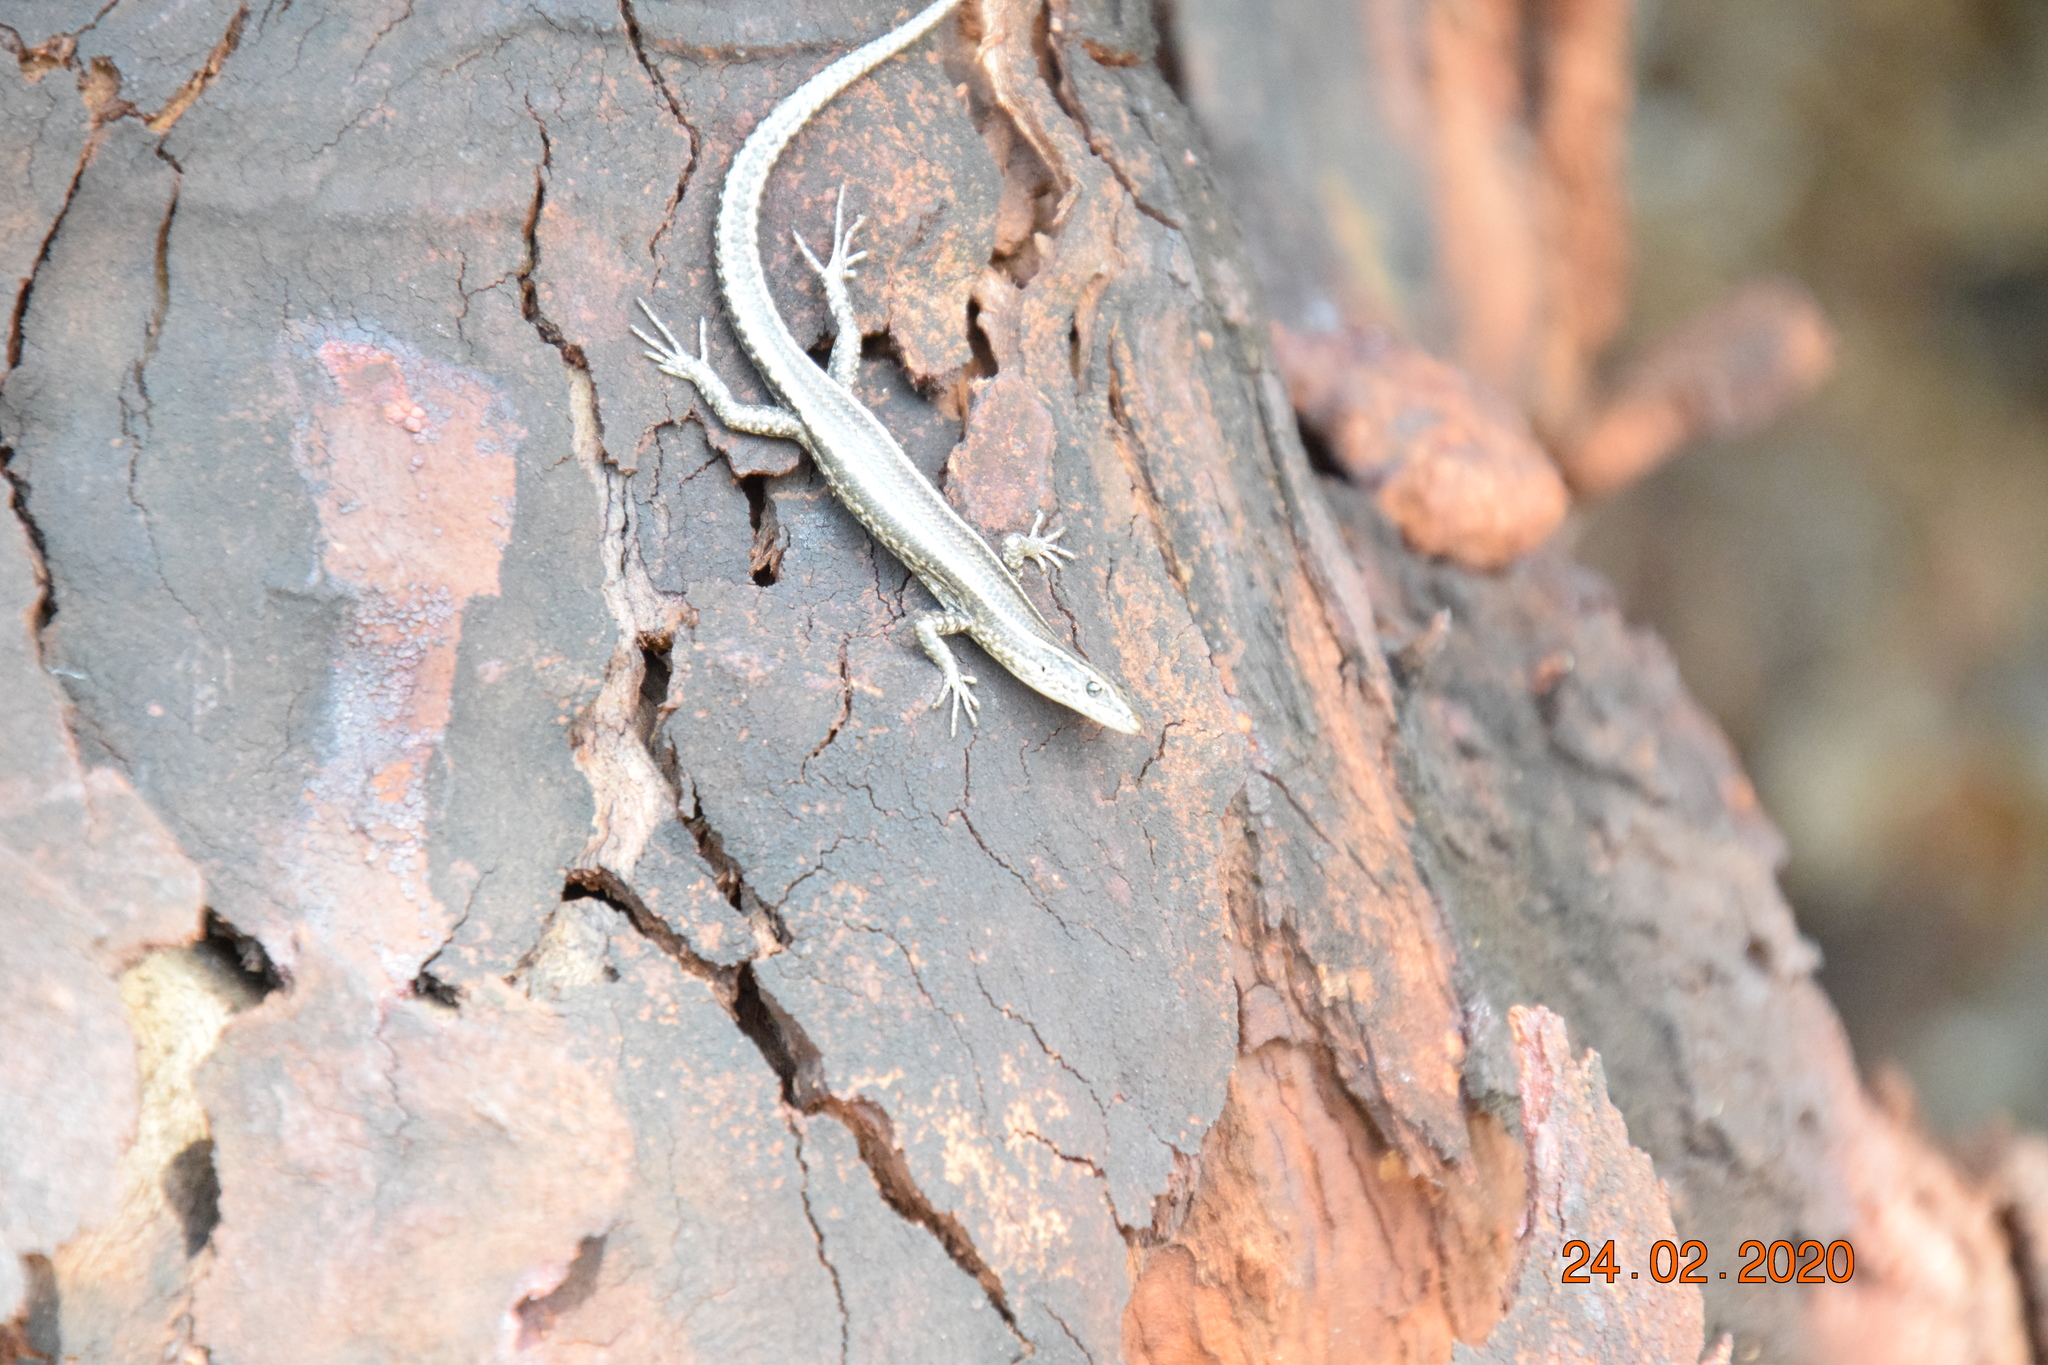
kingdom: Animalia
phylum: Chordata
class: Squamata
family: Scincidae
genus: Cryptoblepharus
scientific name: Cryptoblepharus pulcher
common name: Elegant snake-eyed skink
